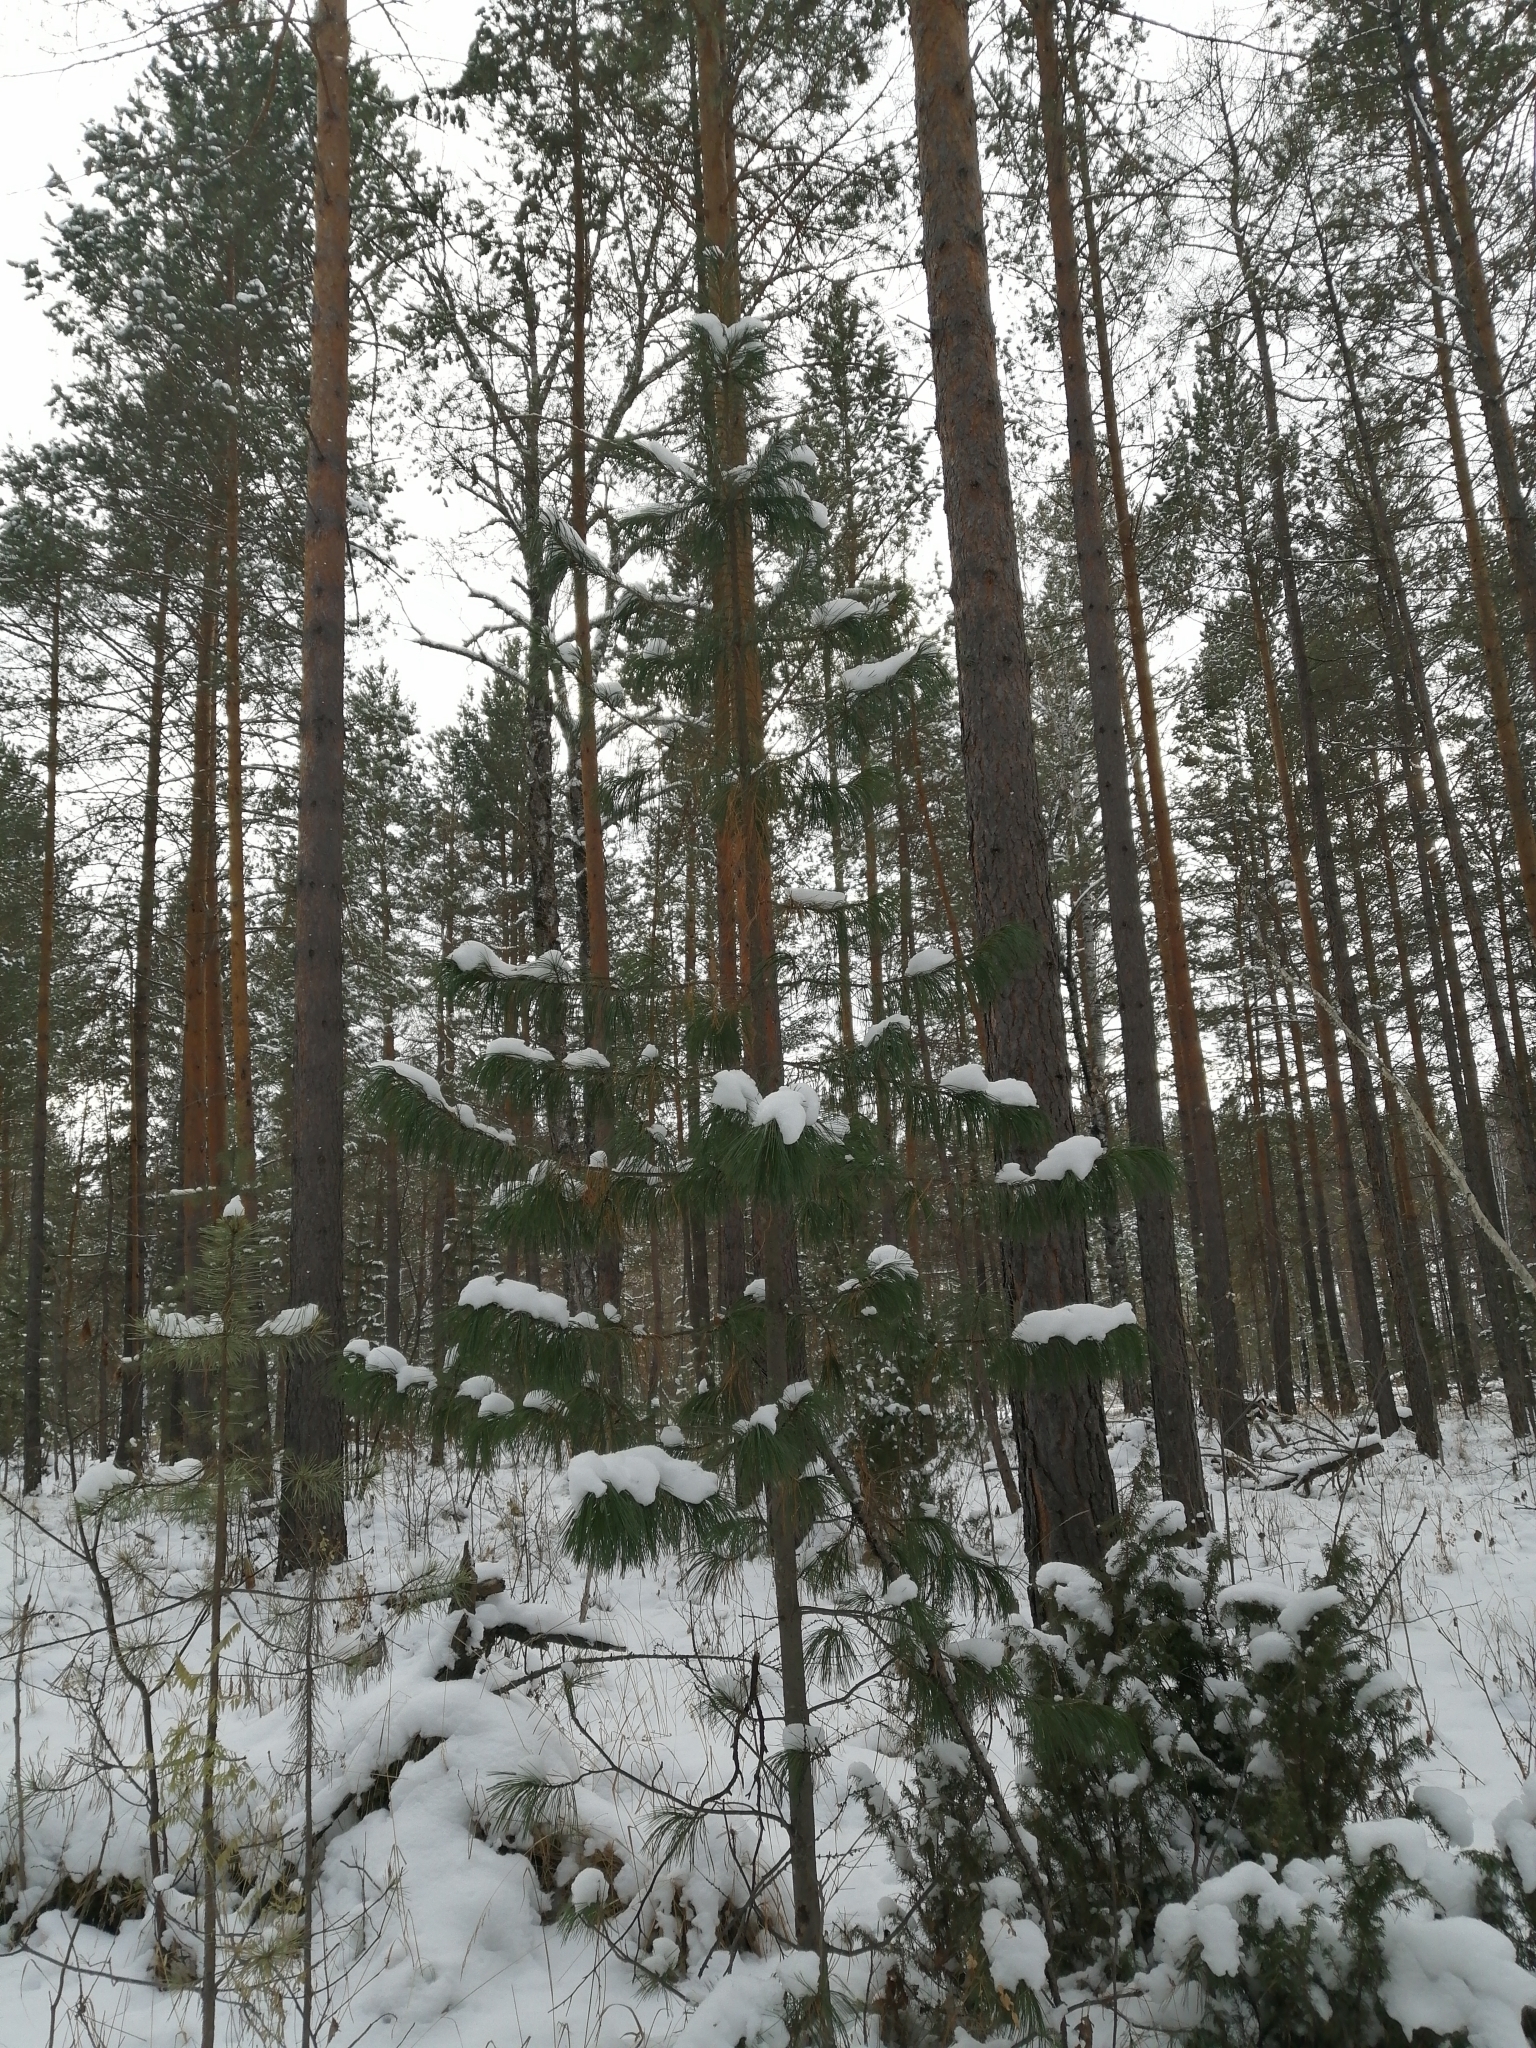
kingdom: Plantae
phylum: Tracheophyta
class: Pinopsida
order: Pinales
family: Pinaceae
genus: Pinus
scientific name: Pinus sibirica
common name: Siberian pine
